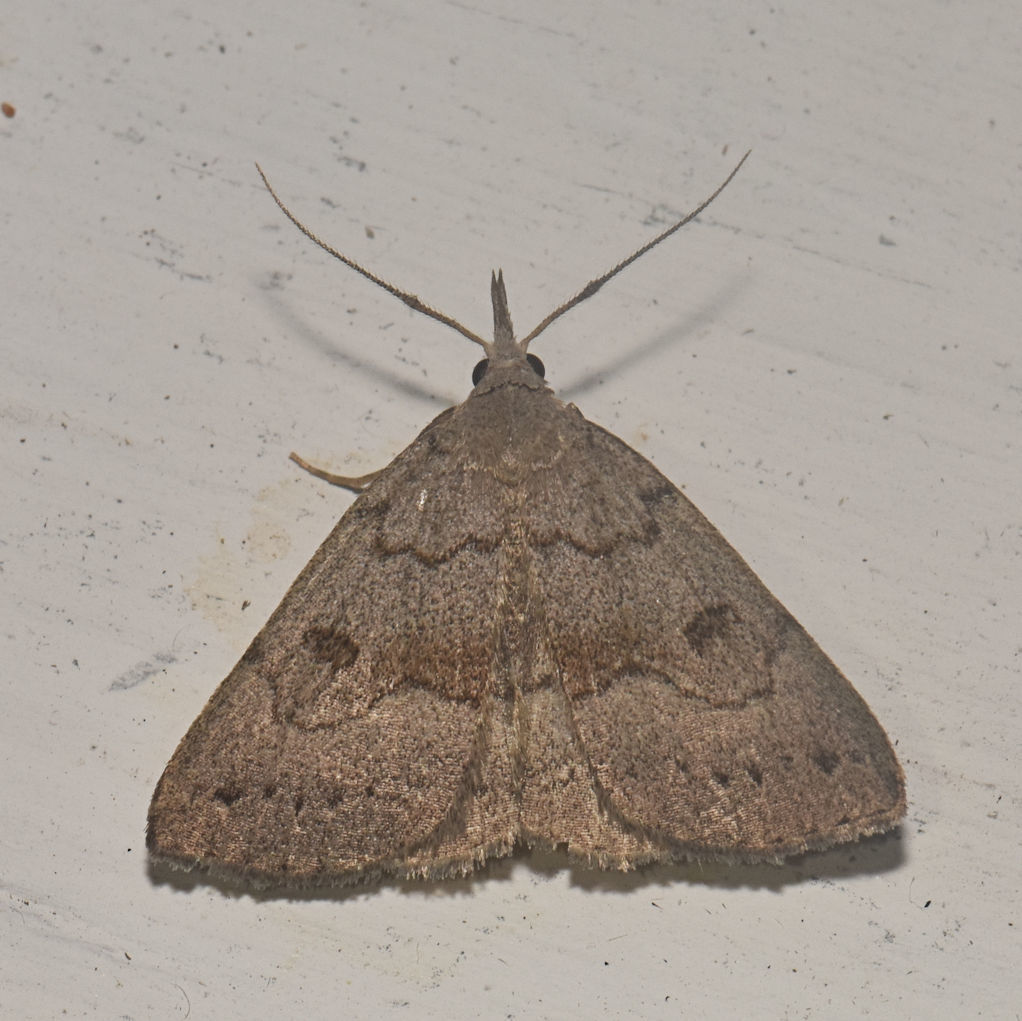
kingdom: Animalia
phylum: Arthropoda
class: Insecta
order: Lepidoptera
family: Erebidae
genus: Macrochilo
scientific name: Macrochilo morbidalis
